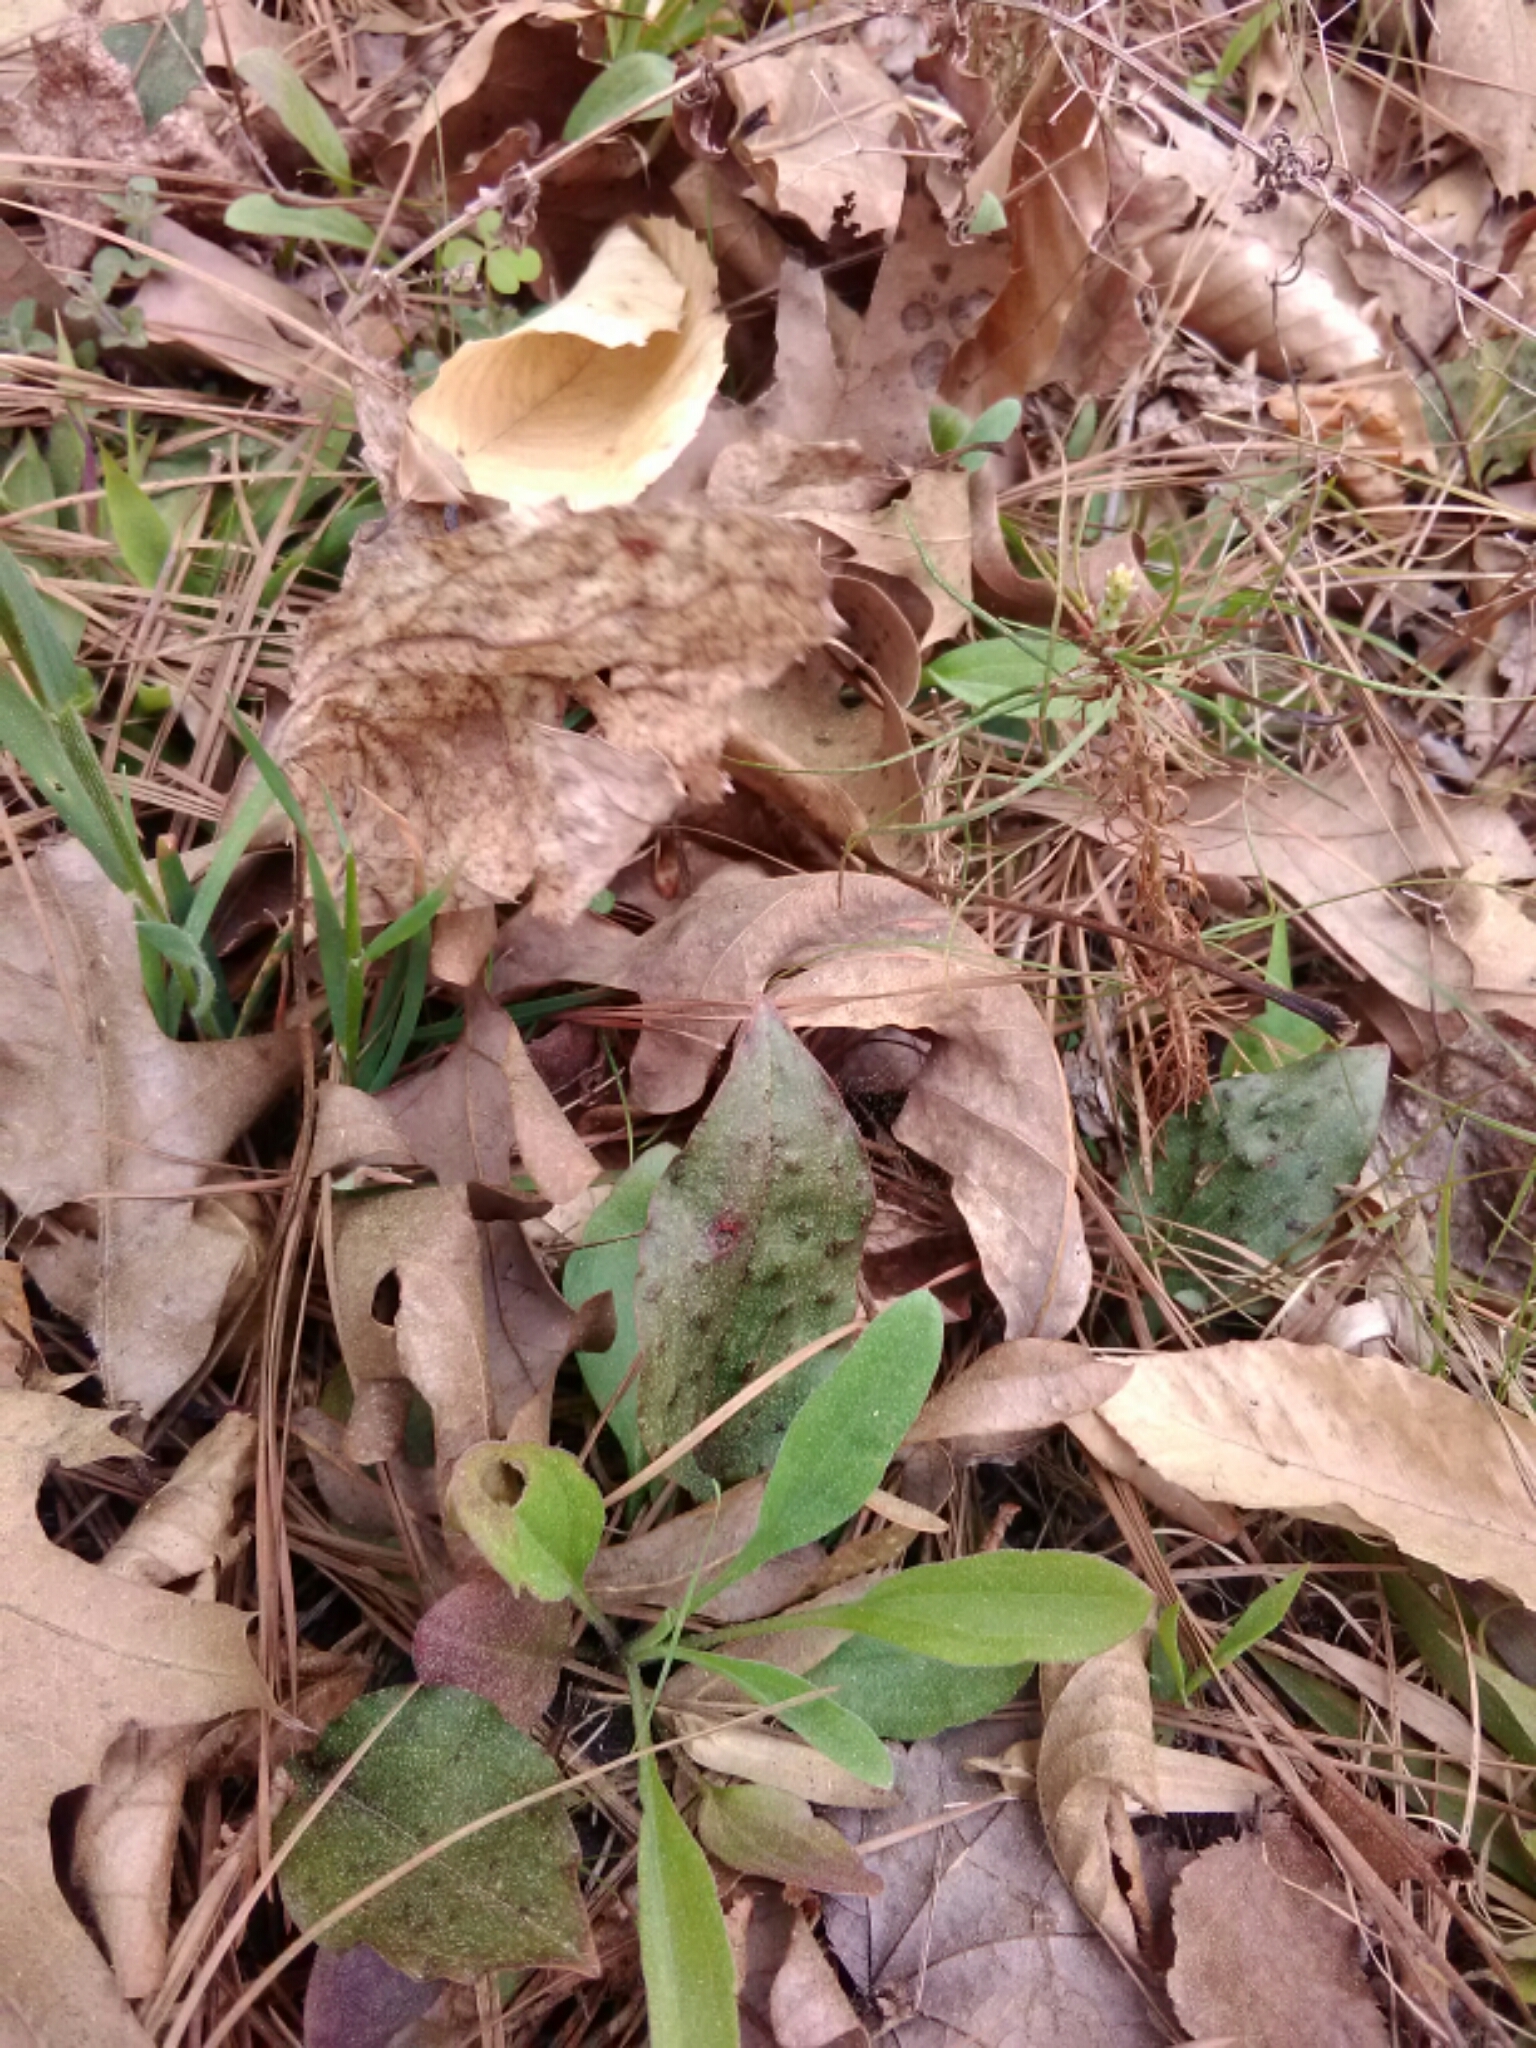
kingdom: Plantae
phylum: Tracheophyta
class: Liliopsida
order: Asparagales
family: Orchidaceae
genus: Tipularia
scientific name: Tipularia discolor
